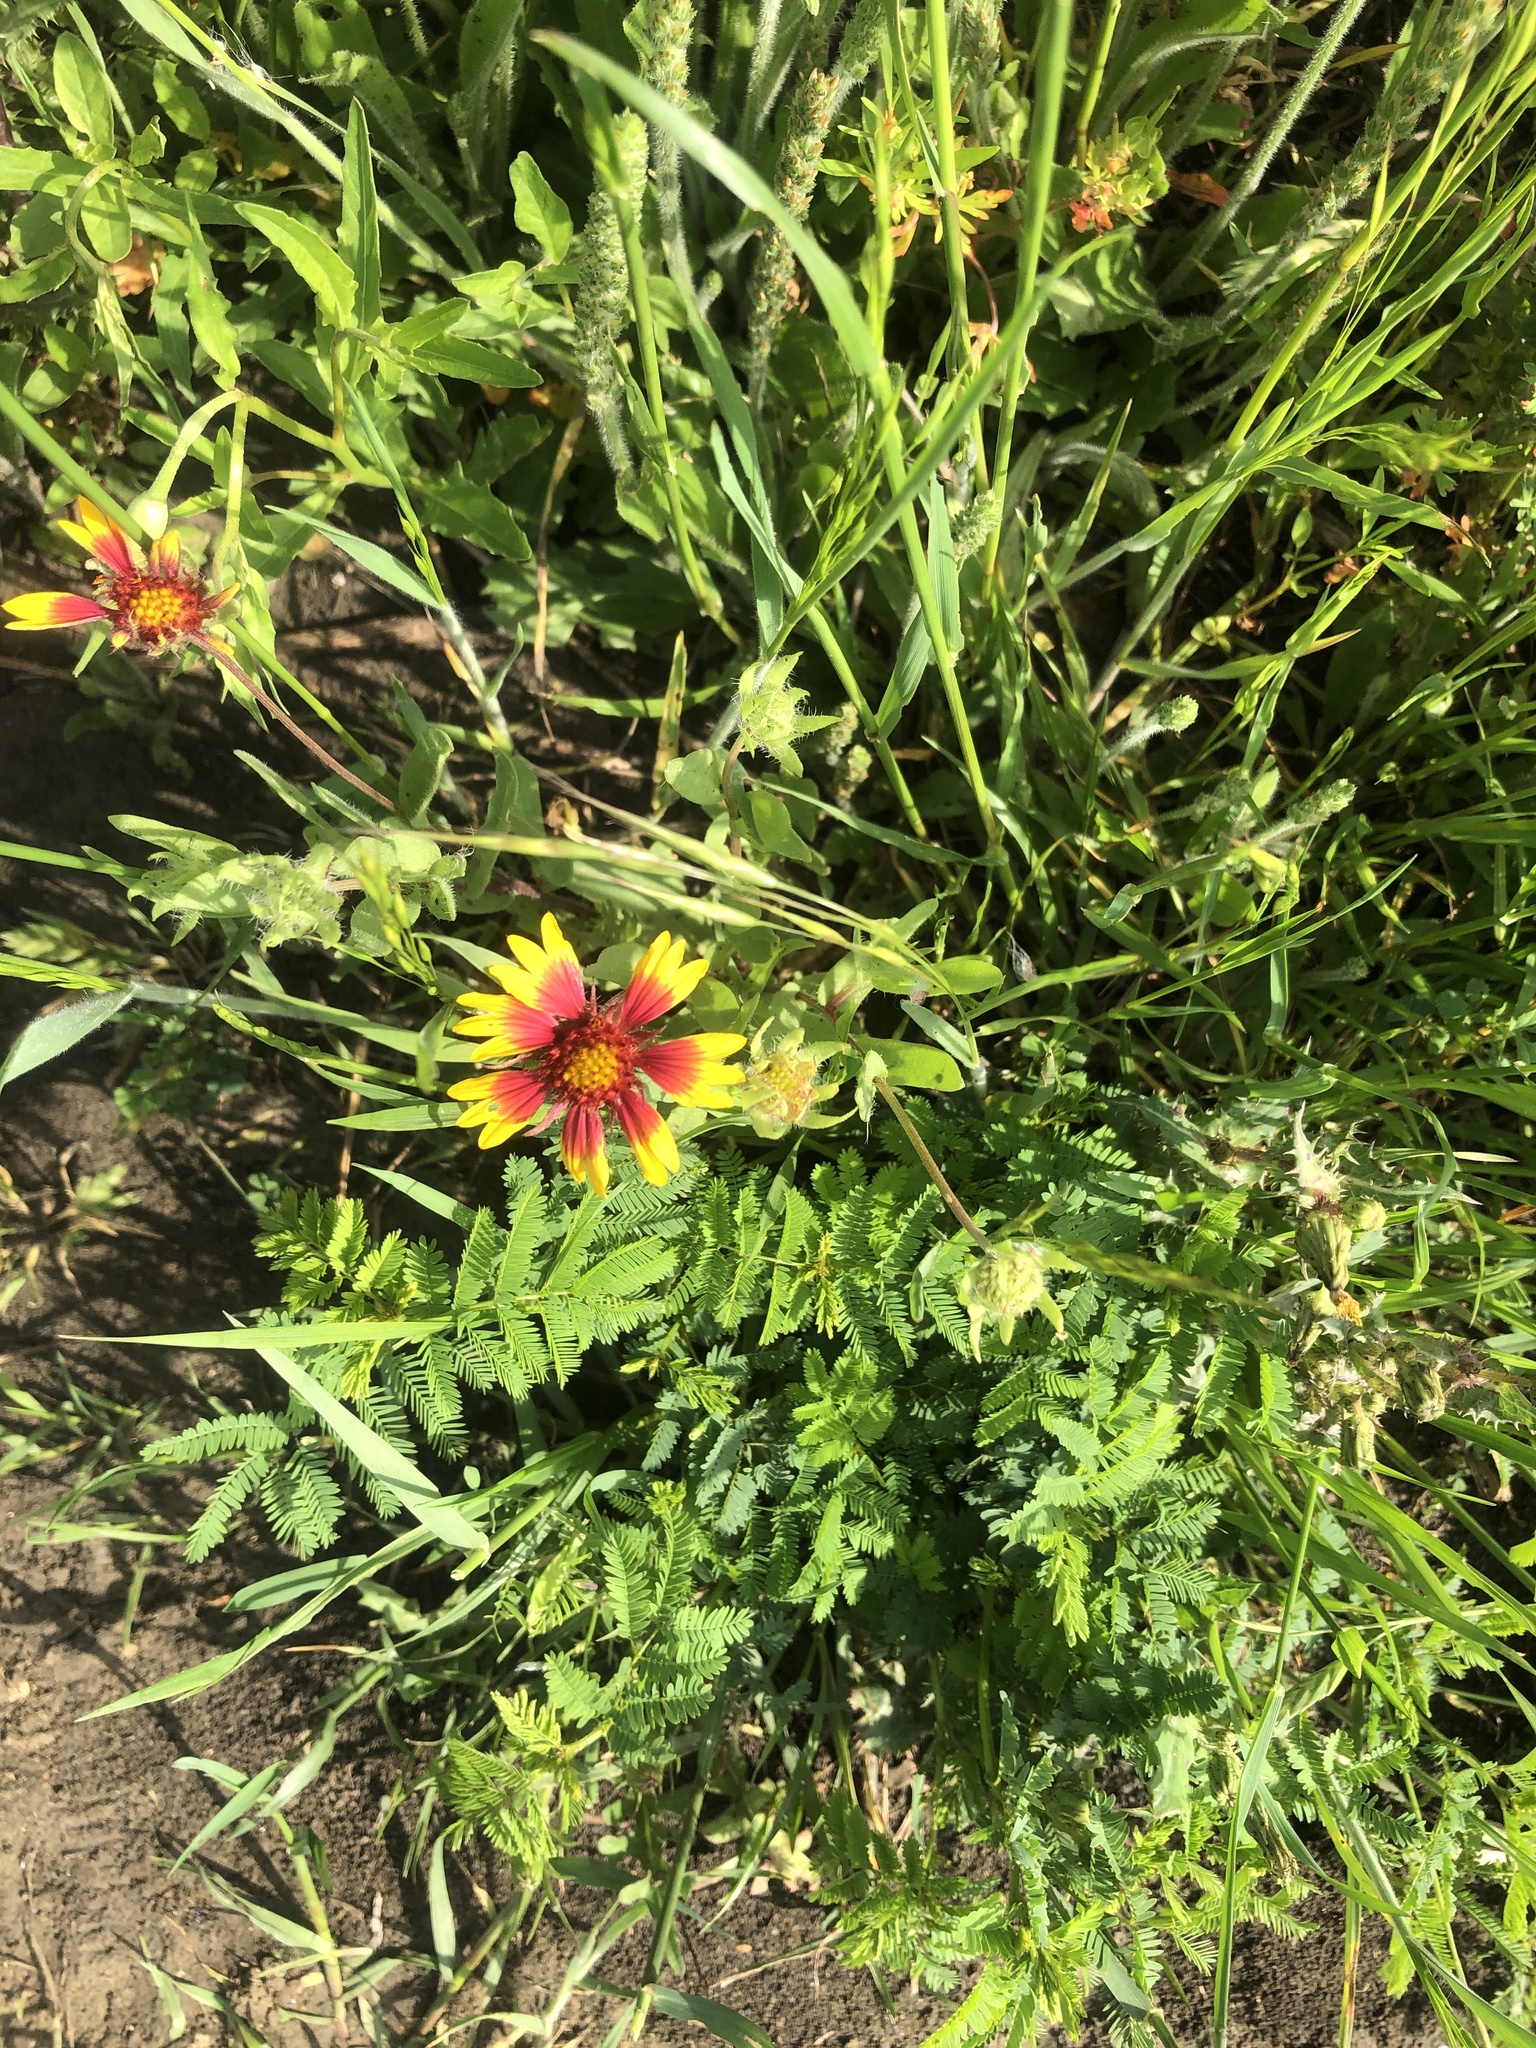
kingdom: Plantae
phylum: Tracheophyta
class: Magnoliopsida
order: Asterales
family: Asteraceae
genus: Gaillardia
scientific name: Gaillardia pulchella
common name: Firewheel
